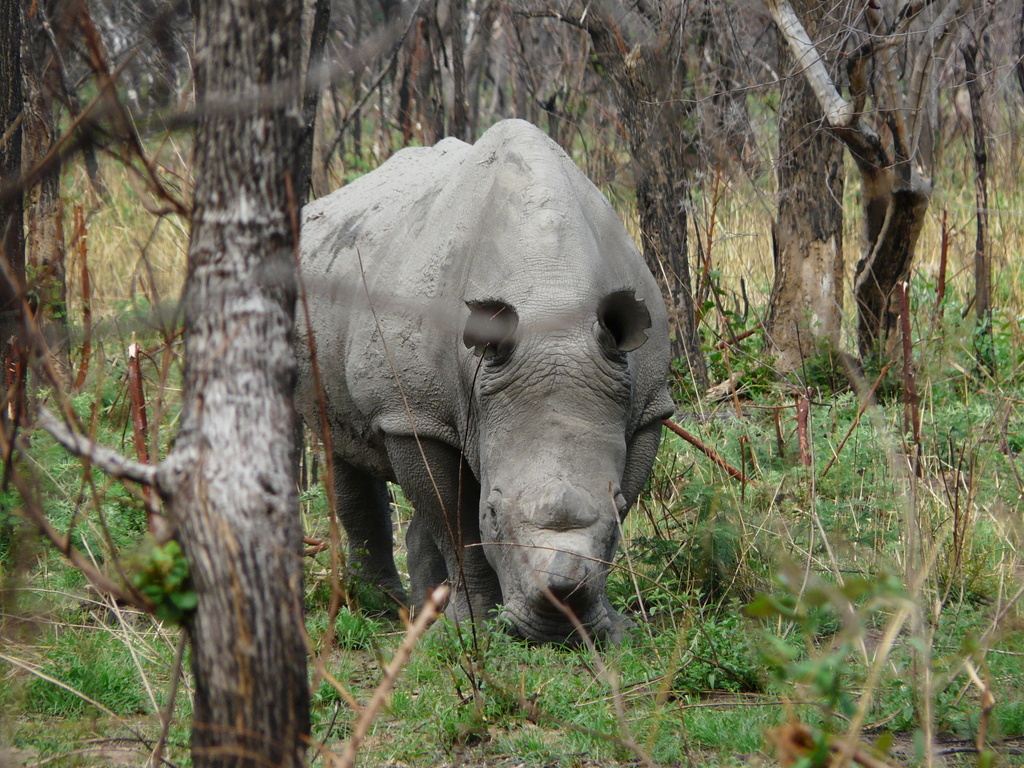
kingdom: Animalia
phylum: Chordata
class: Mammalia
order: Perissodactyla
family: Rhinocerotidae
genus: Ceratotherium
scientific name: Ceratotherium simum
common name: White rhinoceros
